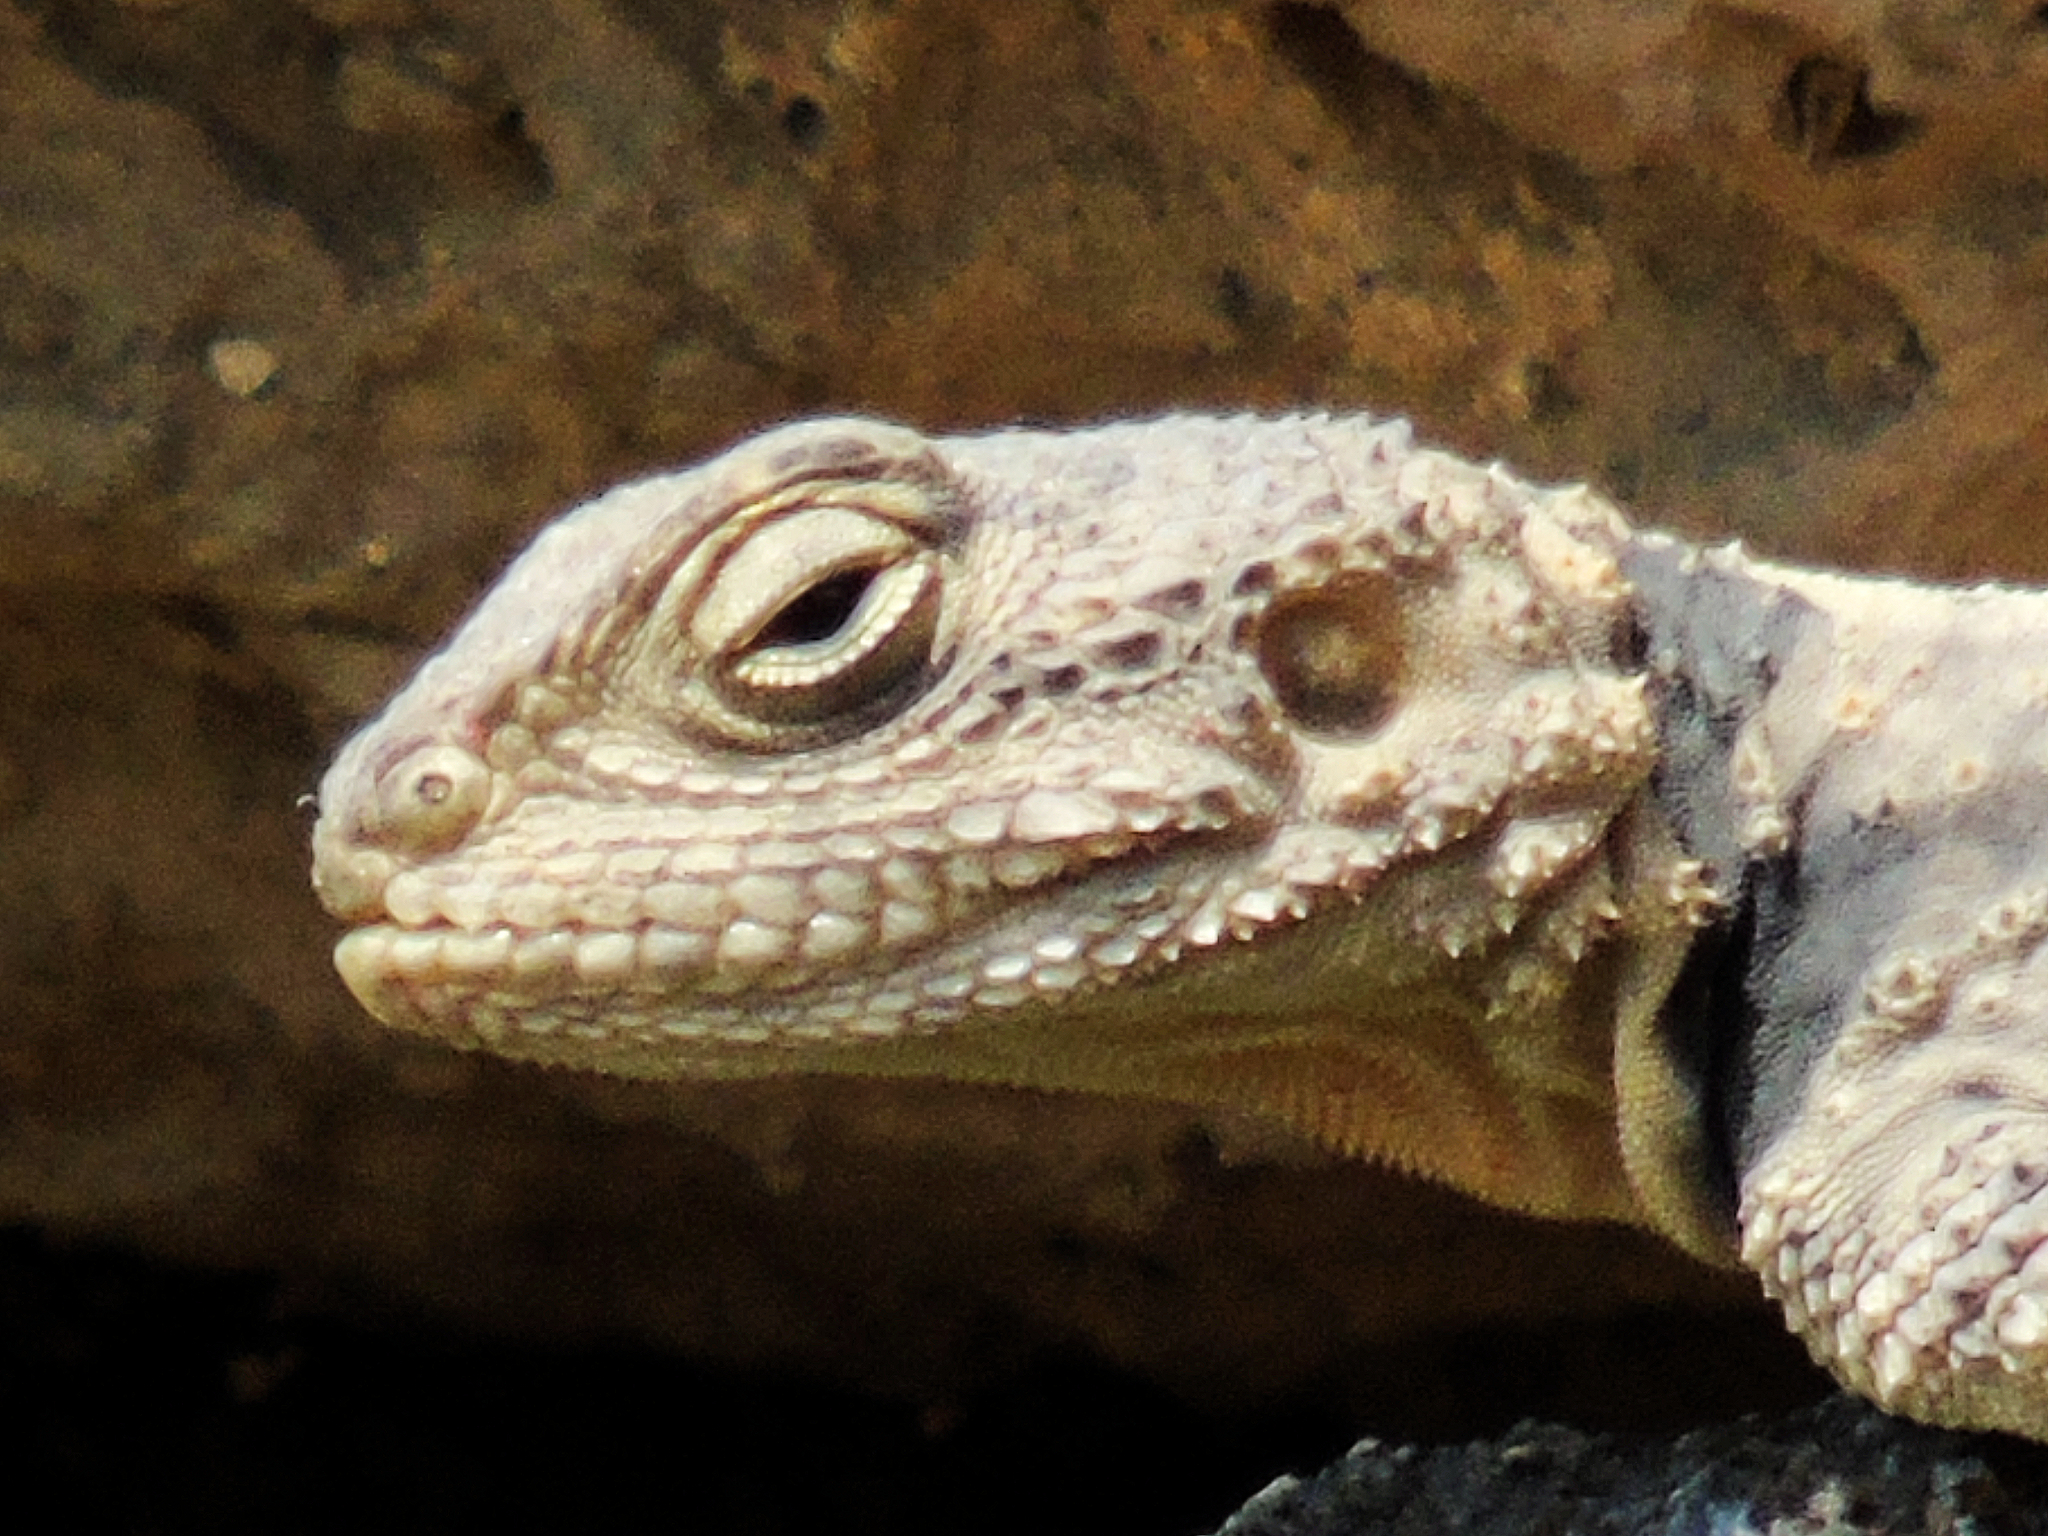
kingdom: Animalia
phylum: Chordata
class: Squamata
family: Agamidae
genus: Stellagama
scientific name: Stellagama stellio
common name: Starred agama
